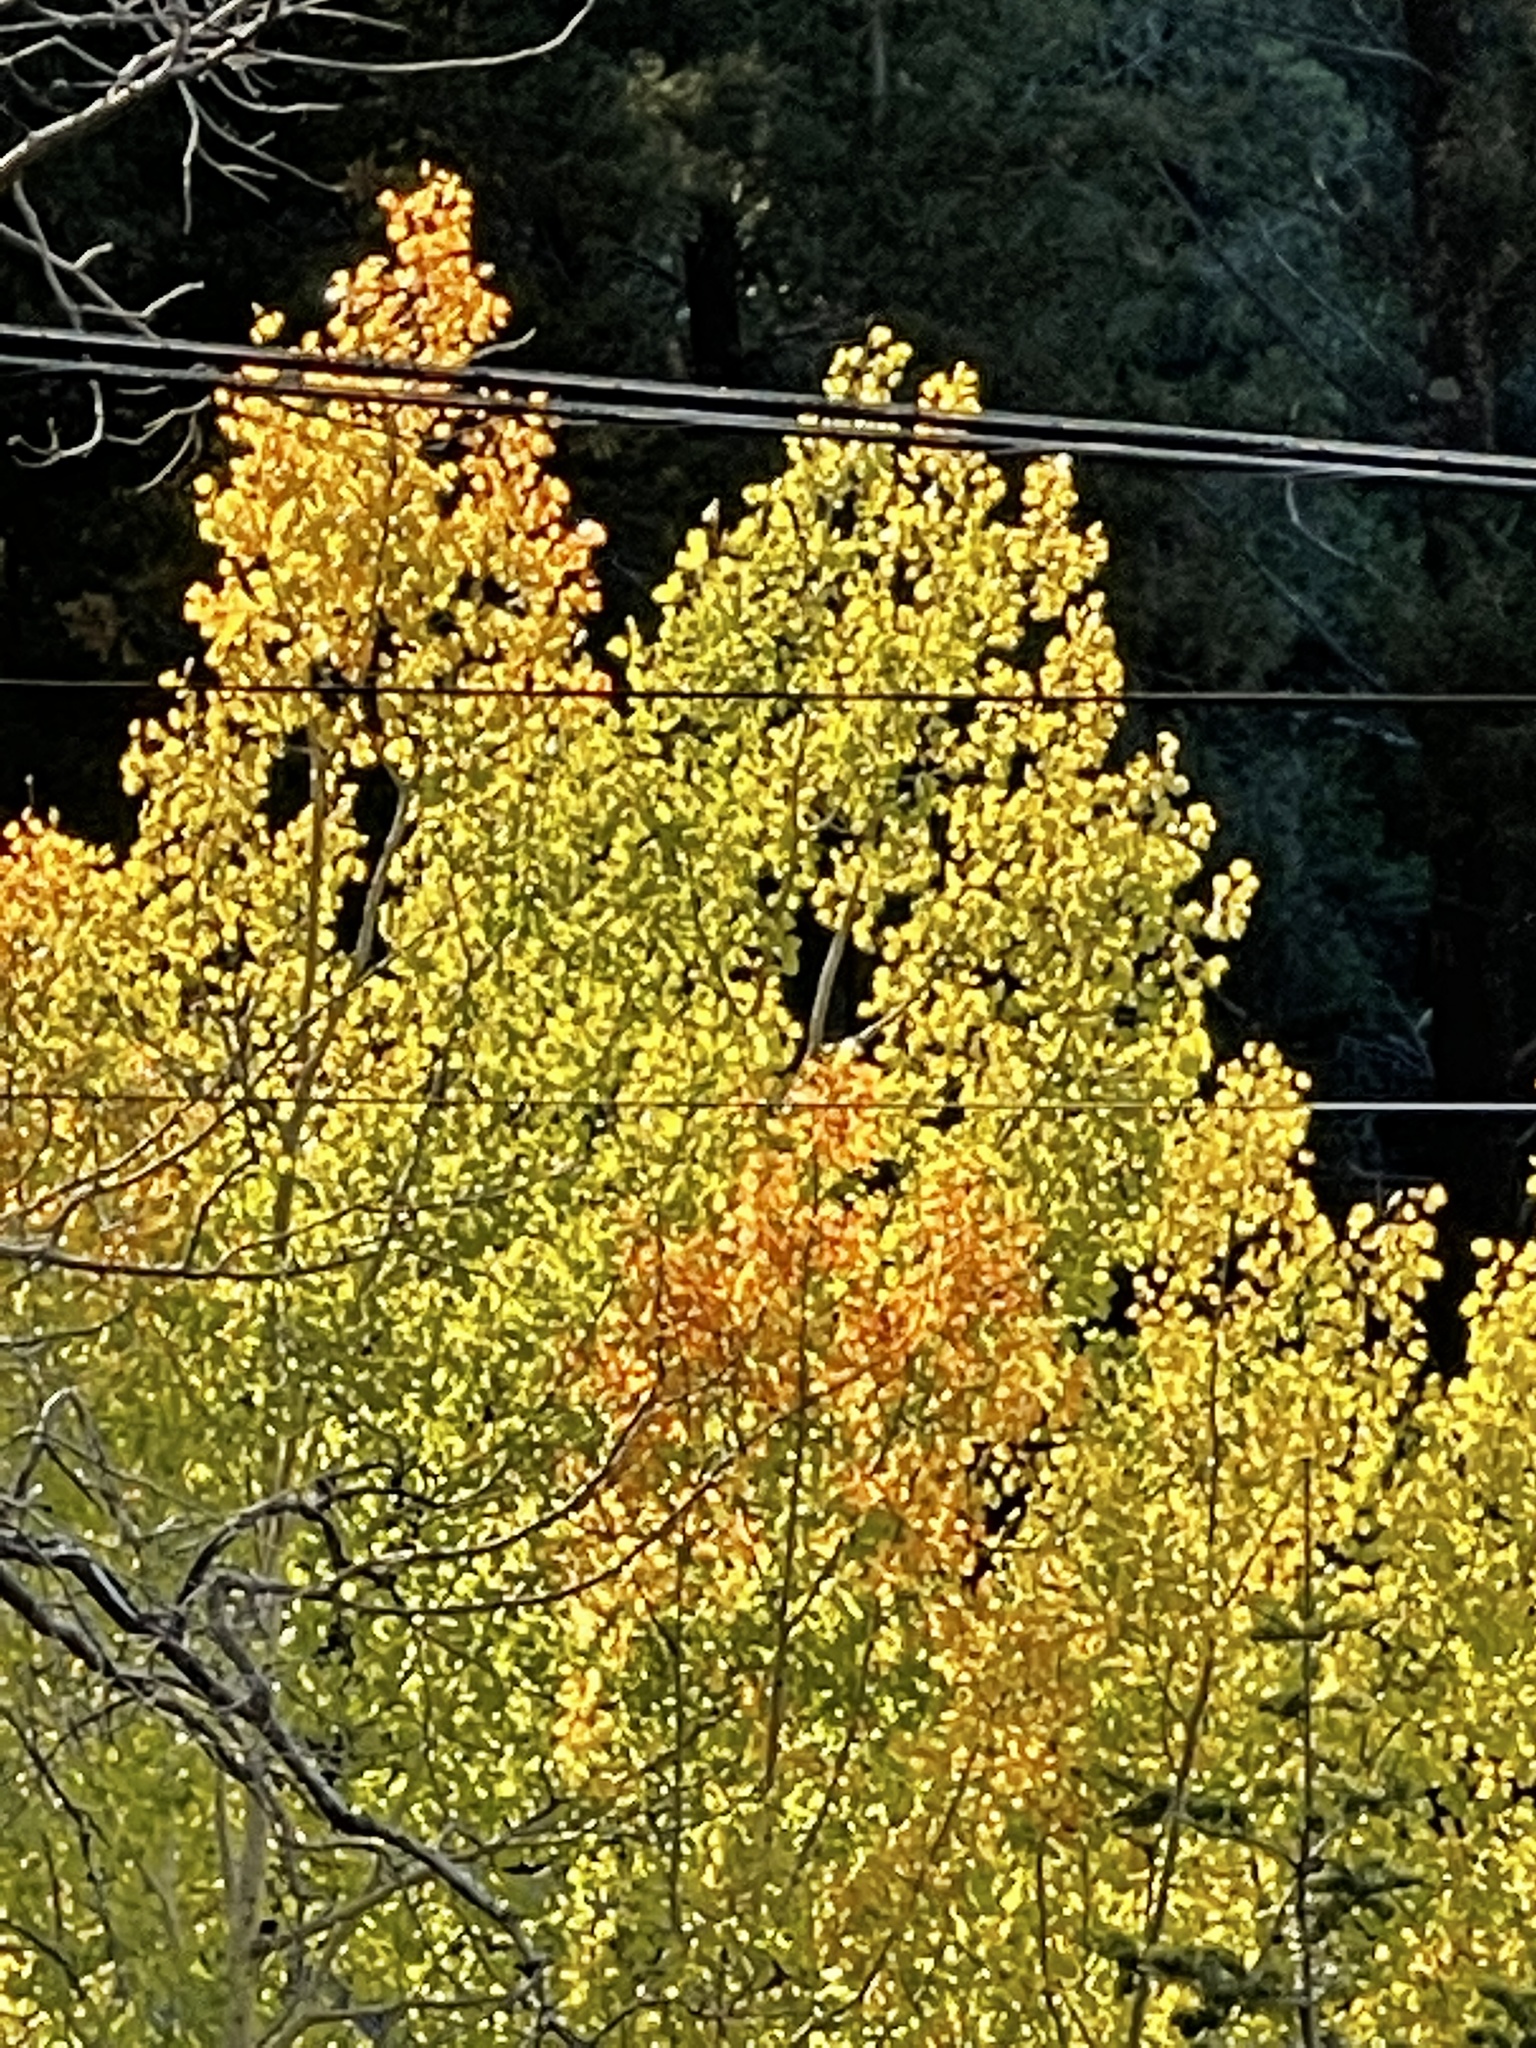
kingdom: Plantae
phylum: Tracheophyta
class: Magnoliopsida
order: Malpighiales
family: Salicaceae
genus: Populus
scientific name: Populus tremuloides
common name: Quaking aspen
